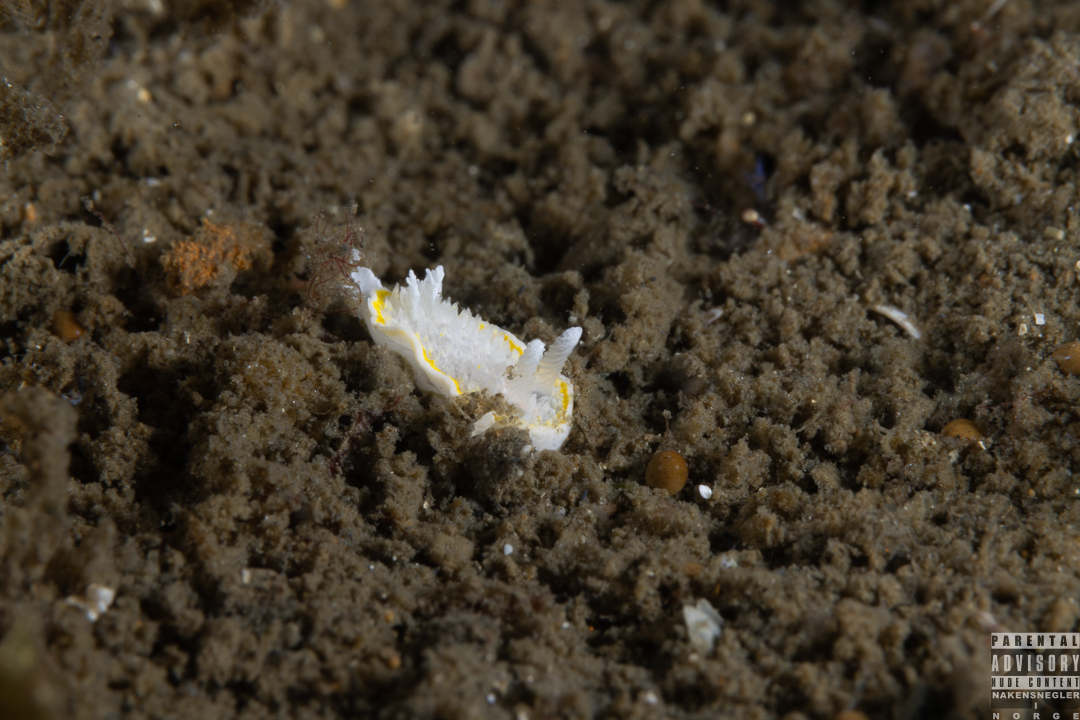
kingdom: Animalia
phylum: Mollusca
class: Gastropoda
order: Nudibranchia
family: Calycidorididae
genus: Diaphorodoris
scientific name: Diaphorodoris luteocincta
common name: Fried egg nudibranch
